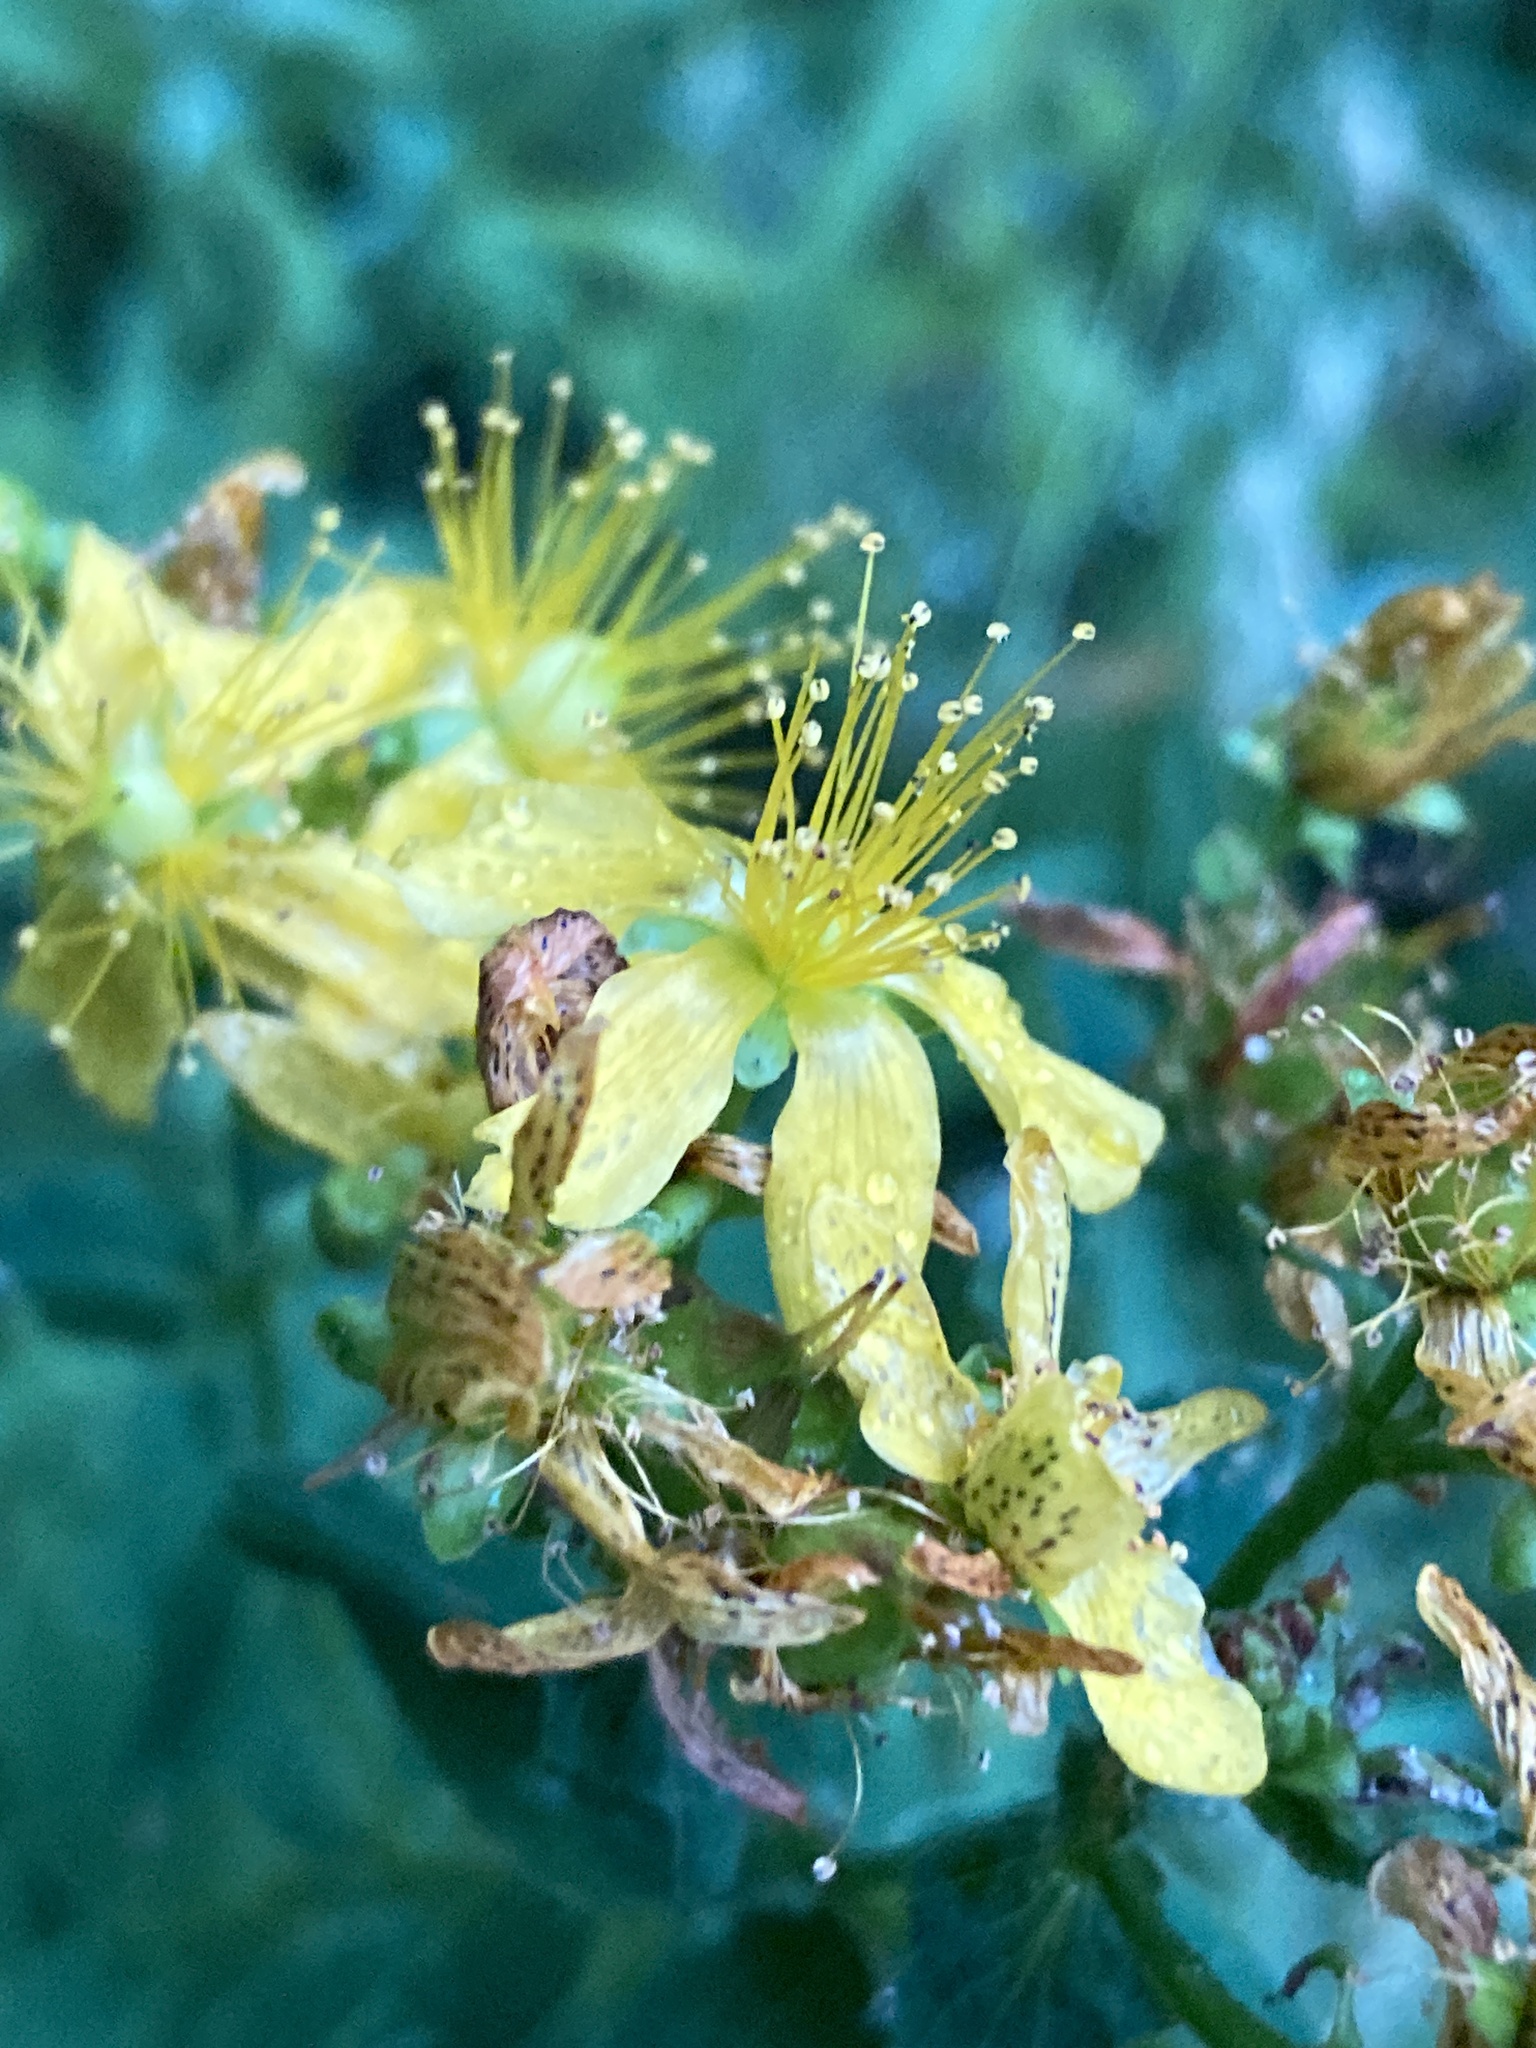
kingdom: Plantae
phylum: Tracheophyta
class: Magnoliopsida
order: Malpighiales
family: Hypericaceae
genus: Hypericum
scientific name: Hypericum maculatum
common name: Imperforate st. john's-wort
